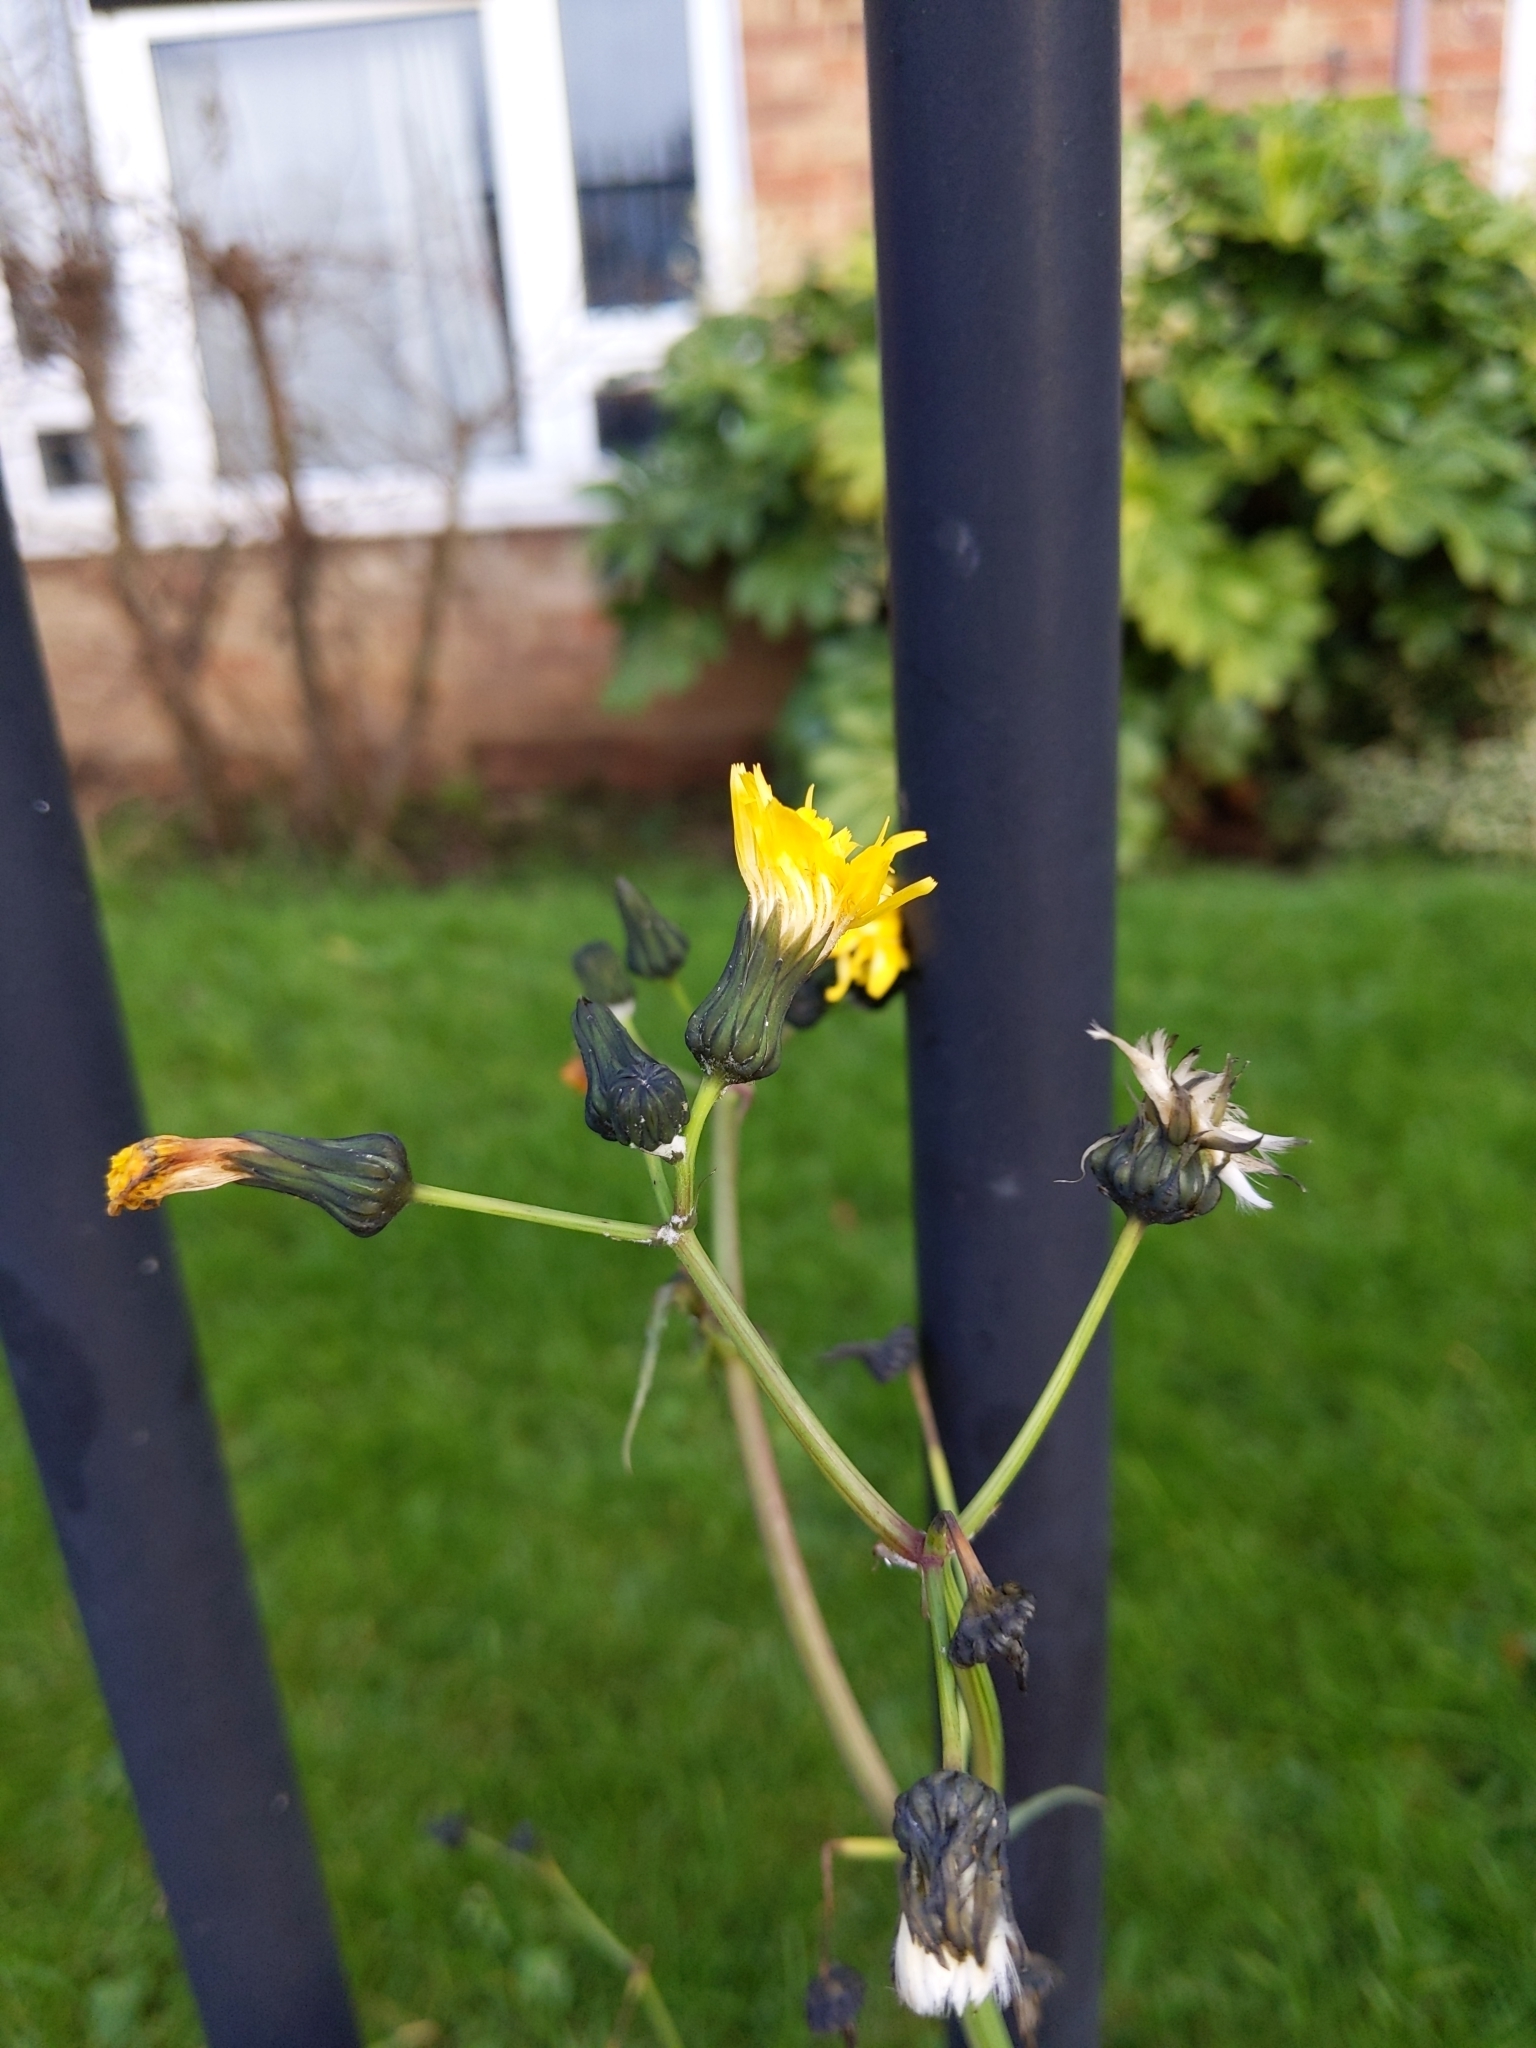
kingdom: Plantae
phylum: Tracheophyta
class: Magnoliopsida
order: Asterales
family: Asteraceae
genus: Sonchus
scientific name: Sonchus oleraceus
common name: Common sowthistle
